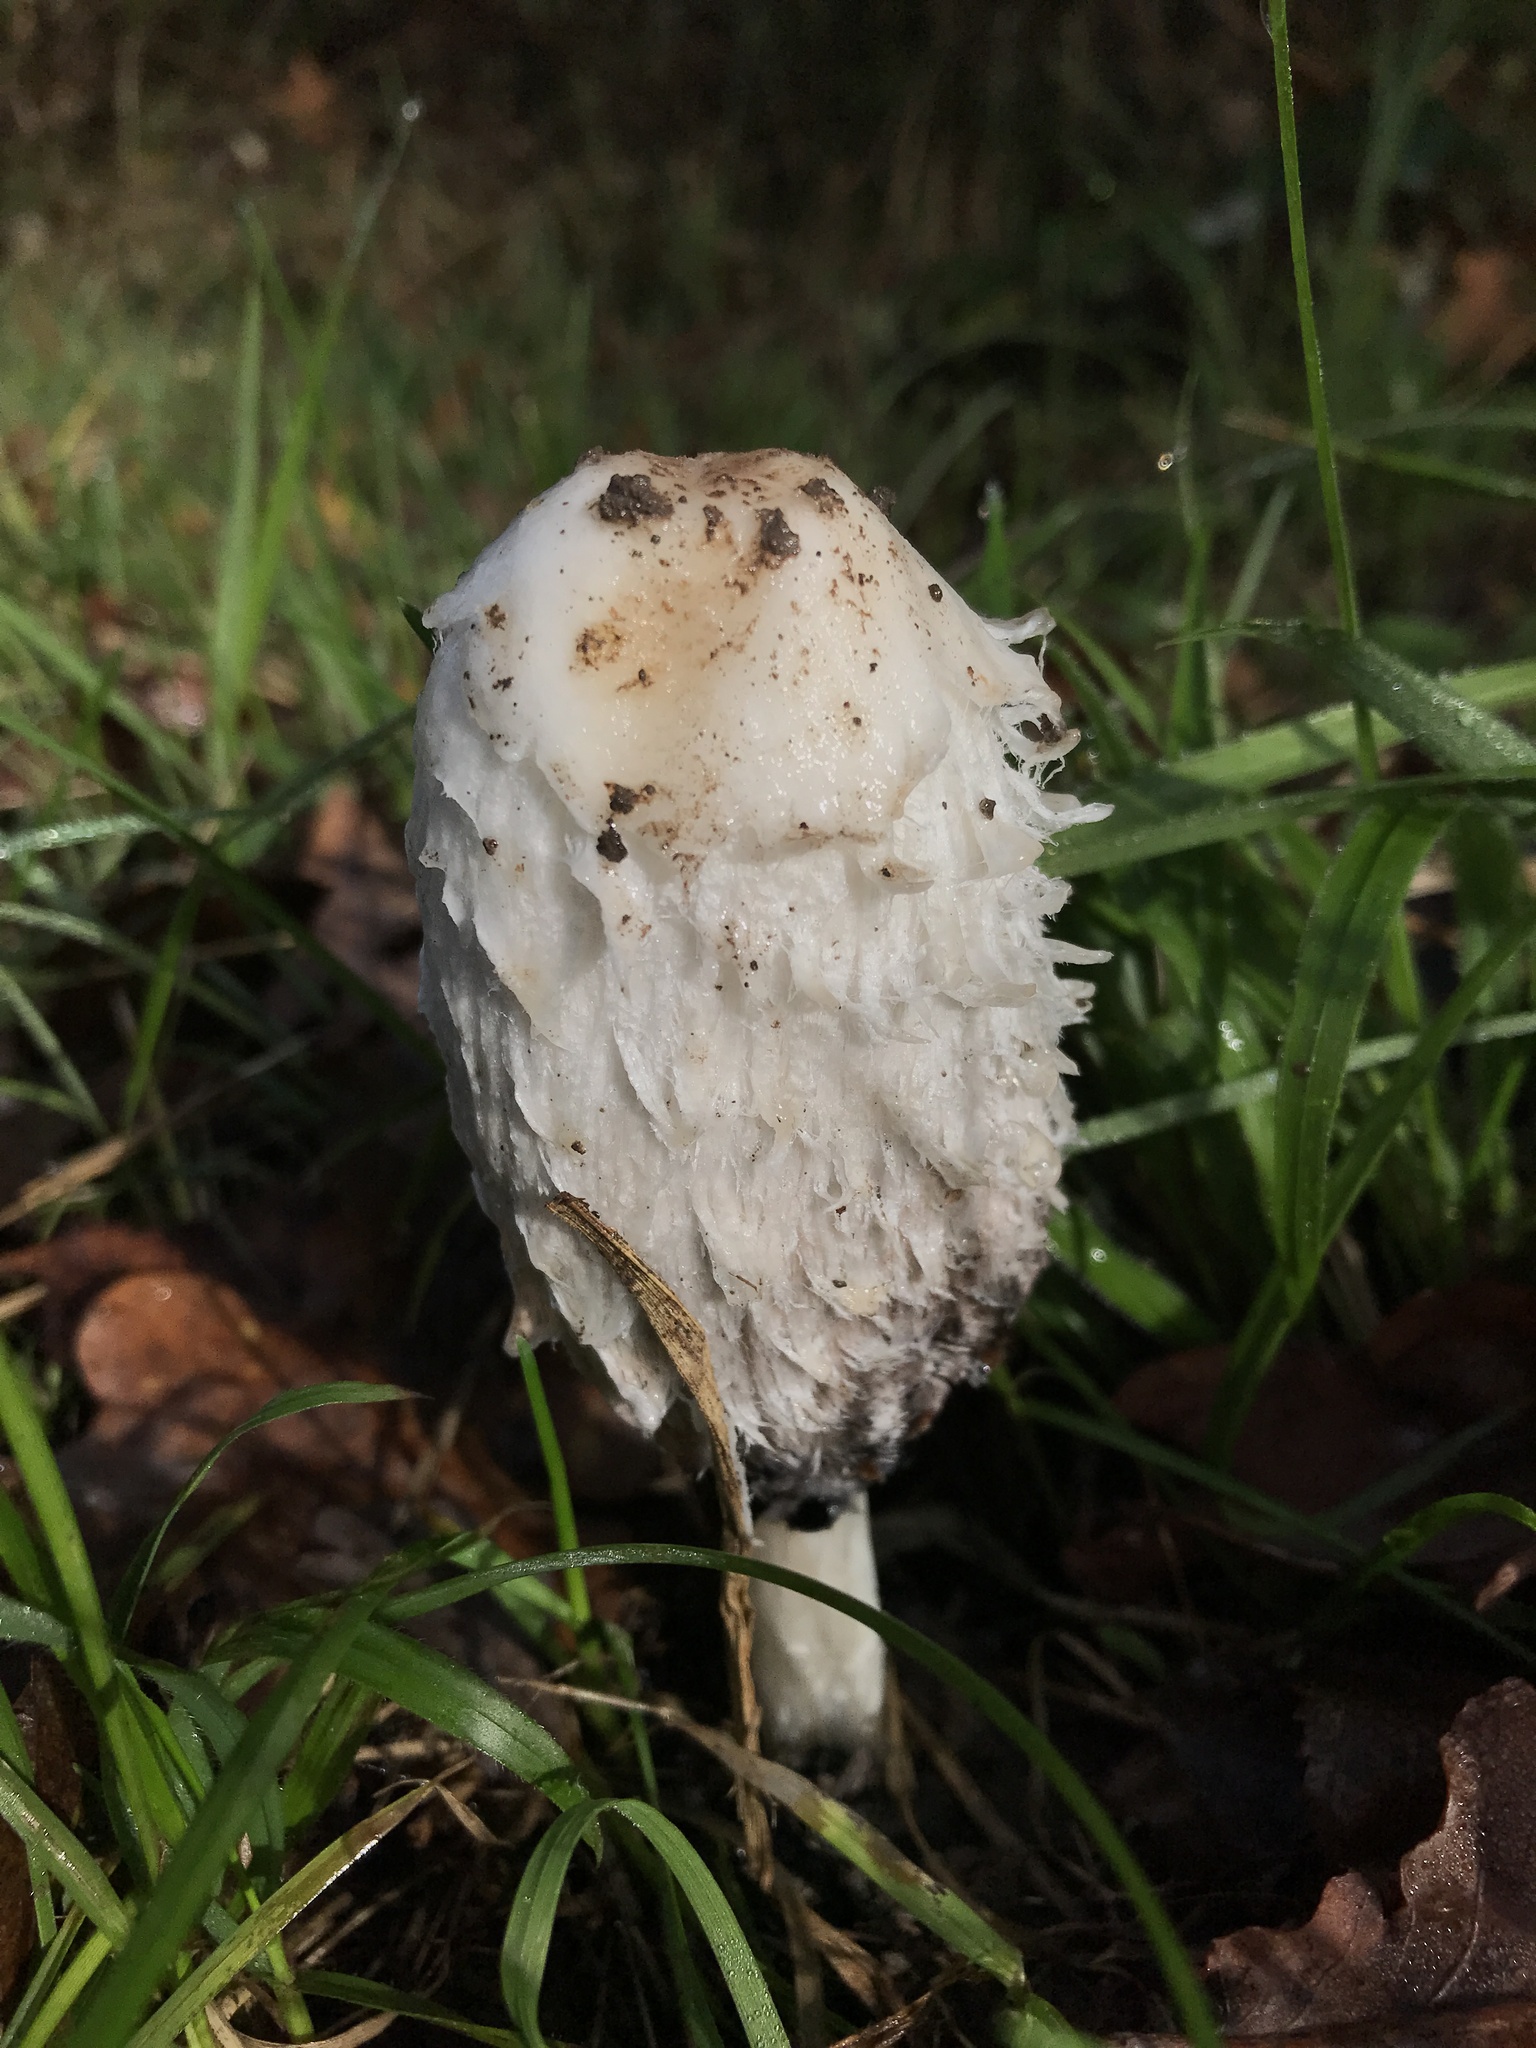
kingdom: Fungi
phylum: Basidiomycota
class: Agaricomycetes
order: Agaricales
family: Agaricaceae
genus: Coprinus
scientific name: Coprinus comatus
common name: Lawyer's wig
